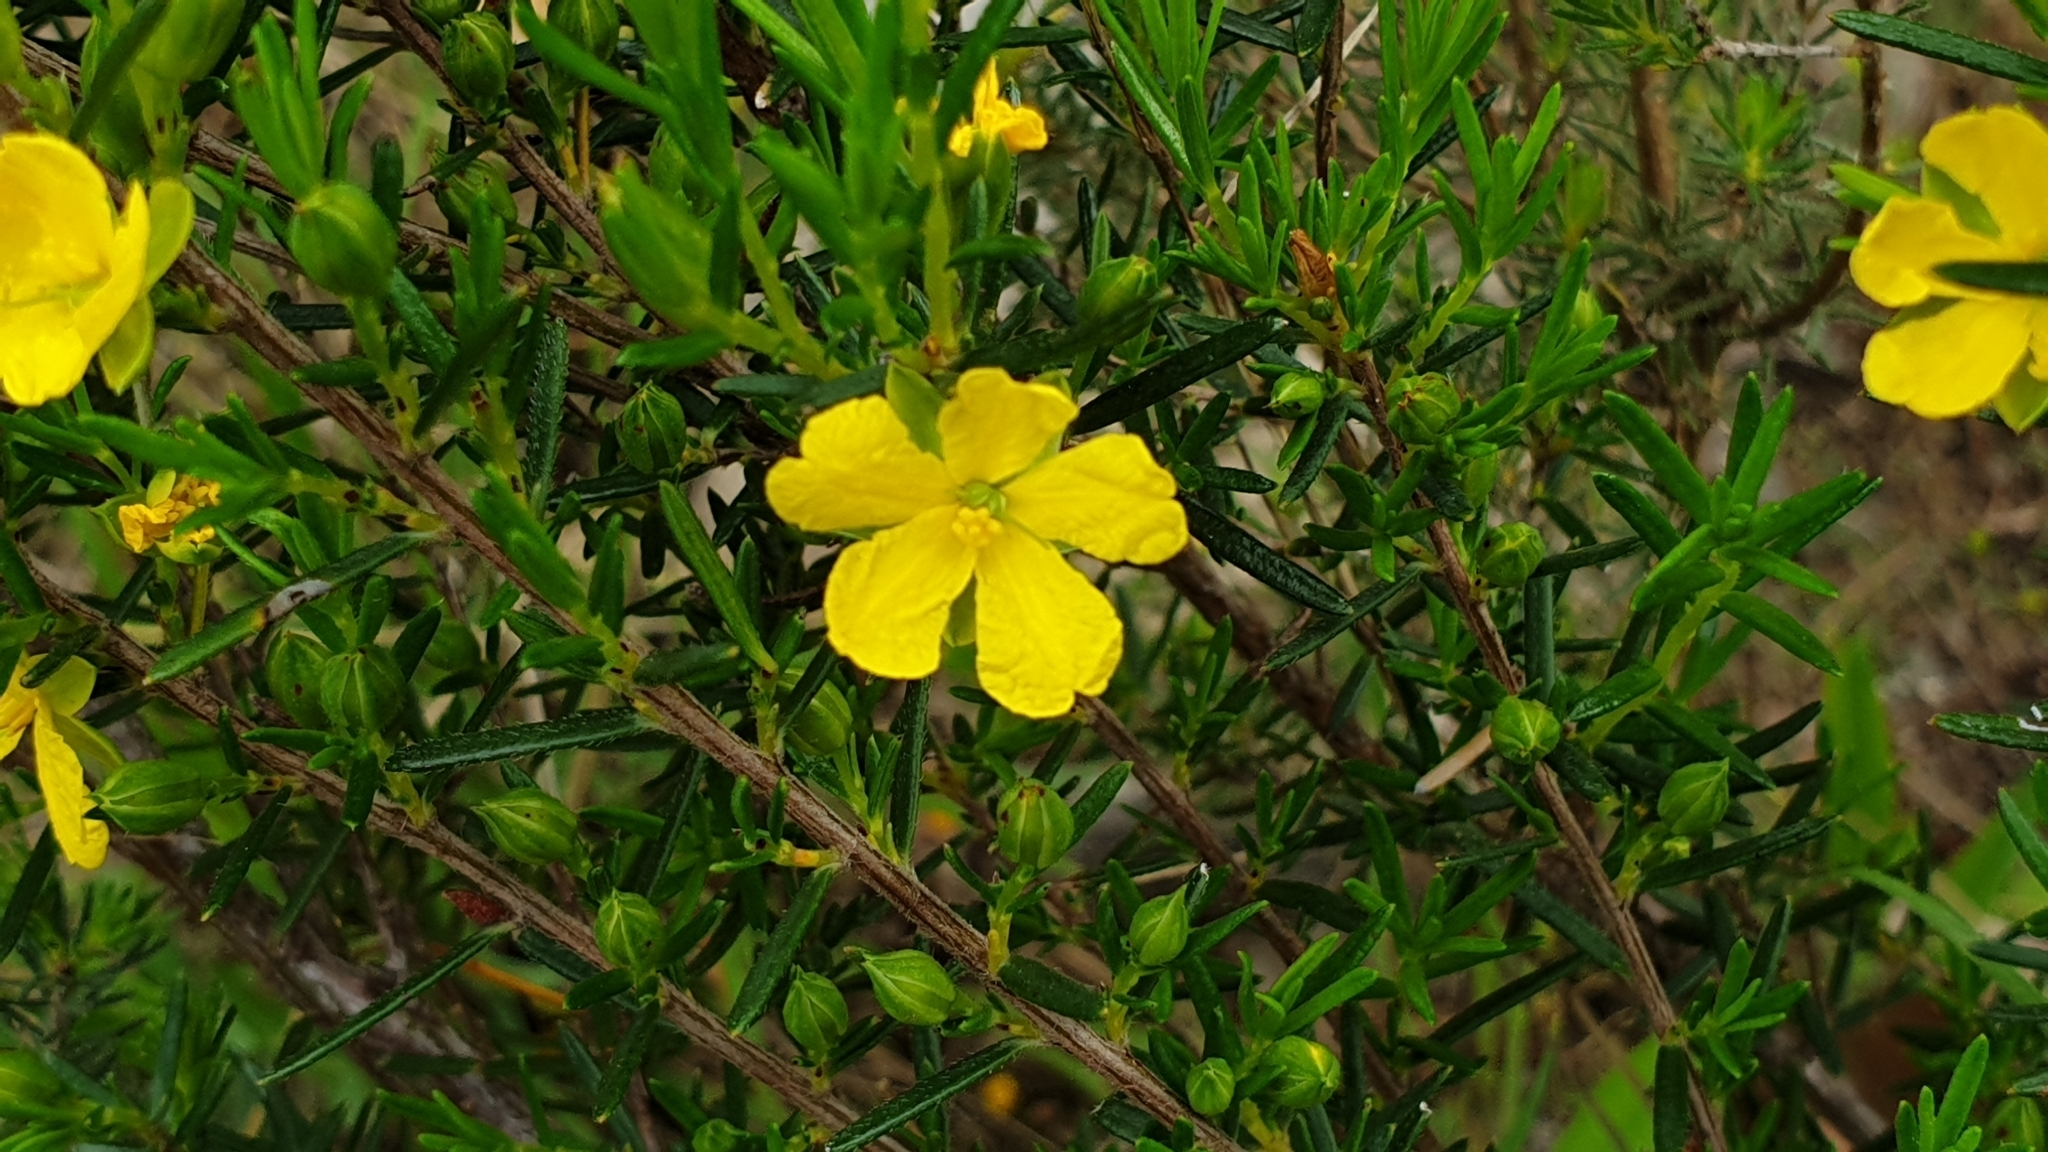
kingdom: Plantae
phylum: Tracheophyta
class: Magnoliopsida
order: Dilleniales
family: Dilleniaceae
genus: Hibbertia
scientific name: Hibbertia riparia
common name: Erect guinea-flower
